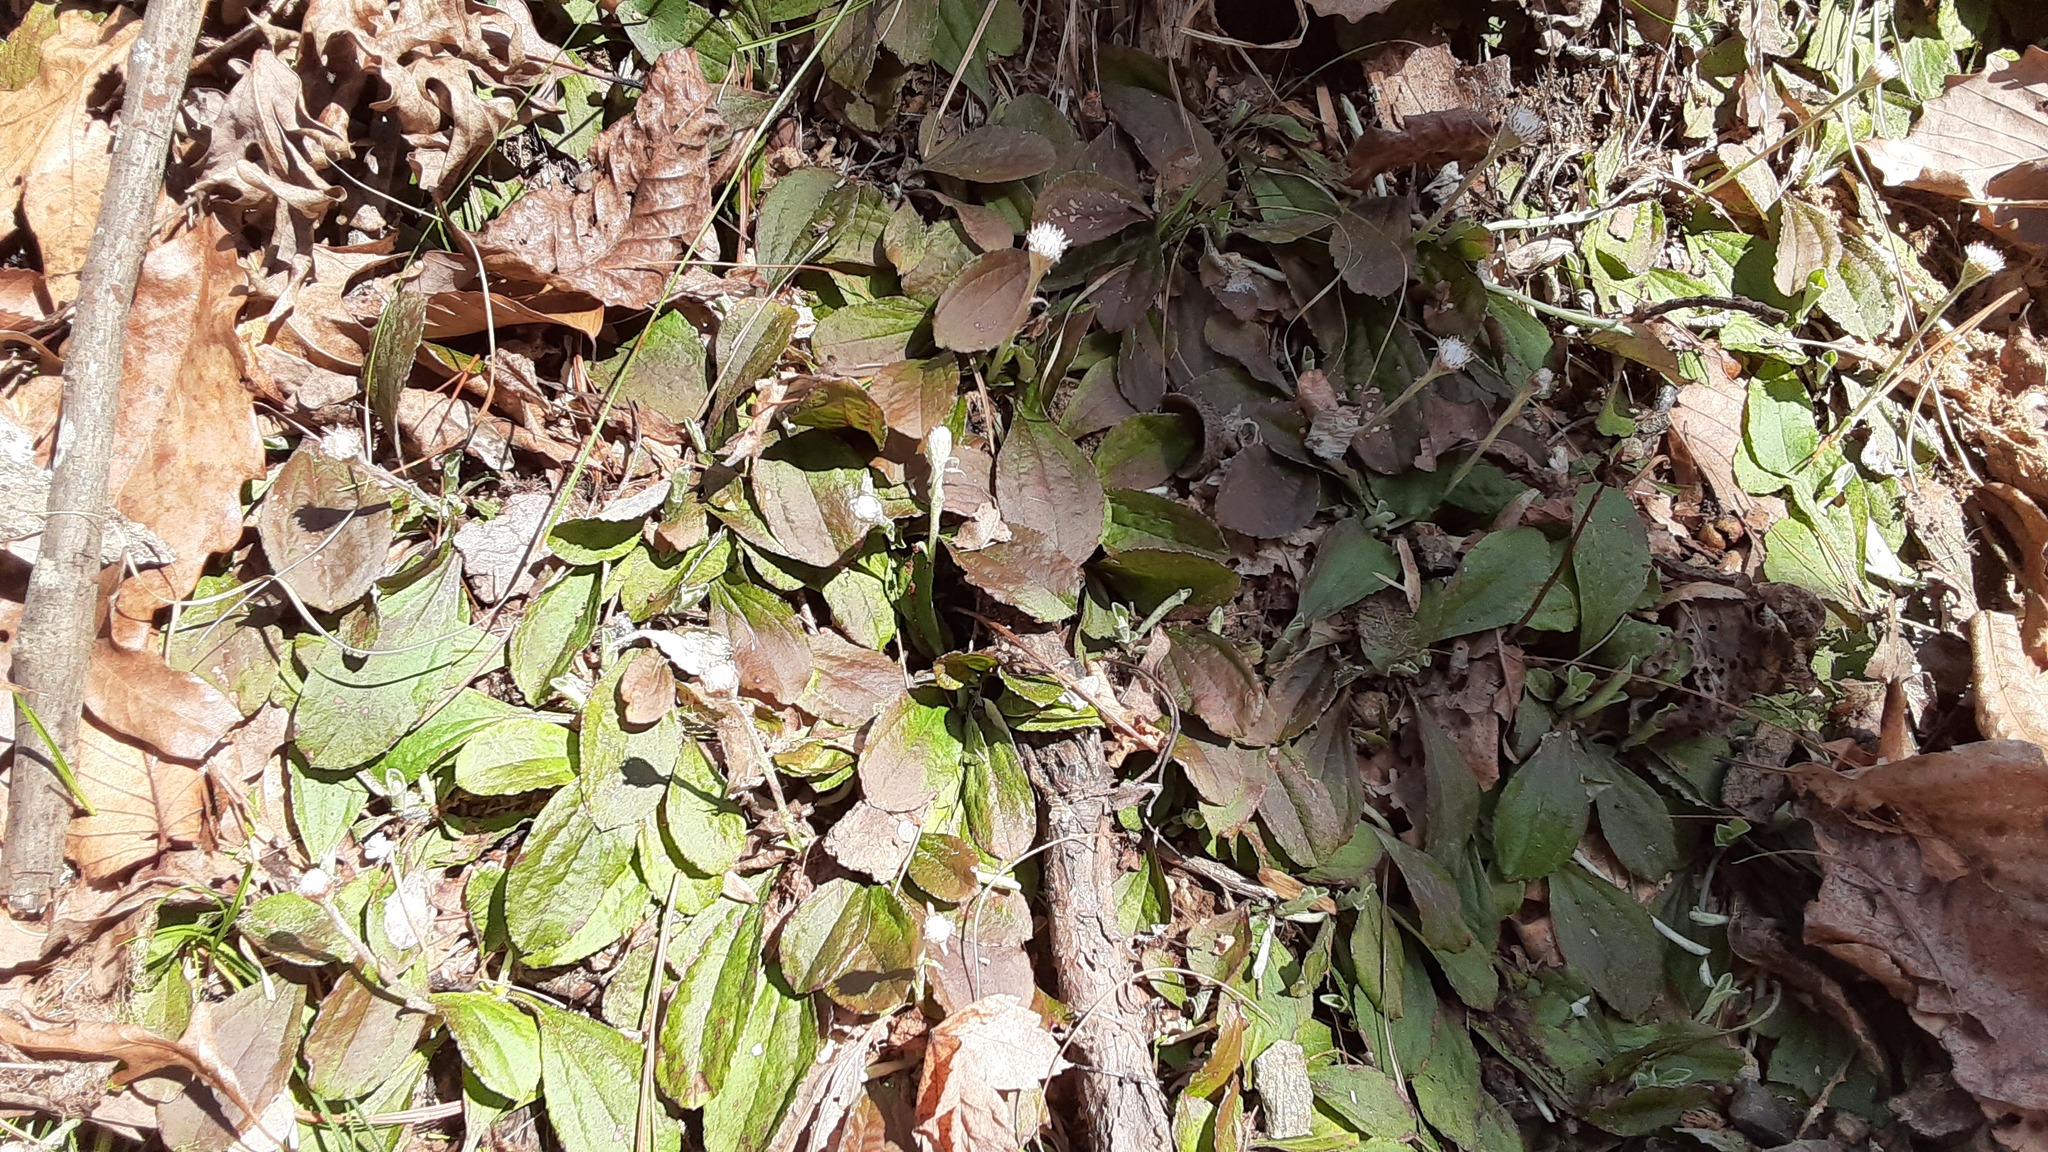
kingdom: Plantae
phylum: Tracheophyta
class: Magnoliopsida
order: Asterales
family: Asteraceae
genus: Antennaria
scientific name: Antennaria solitaria
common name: Single-head pussytoes
